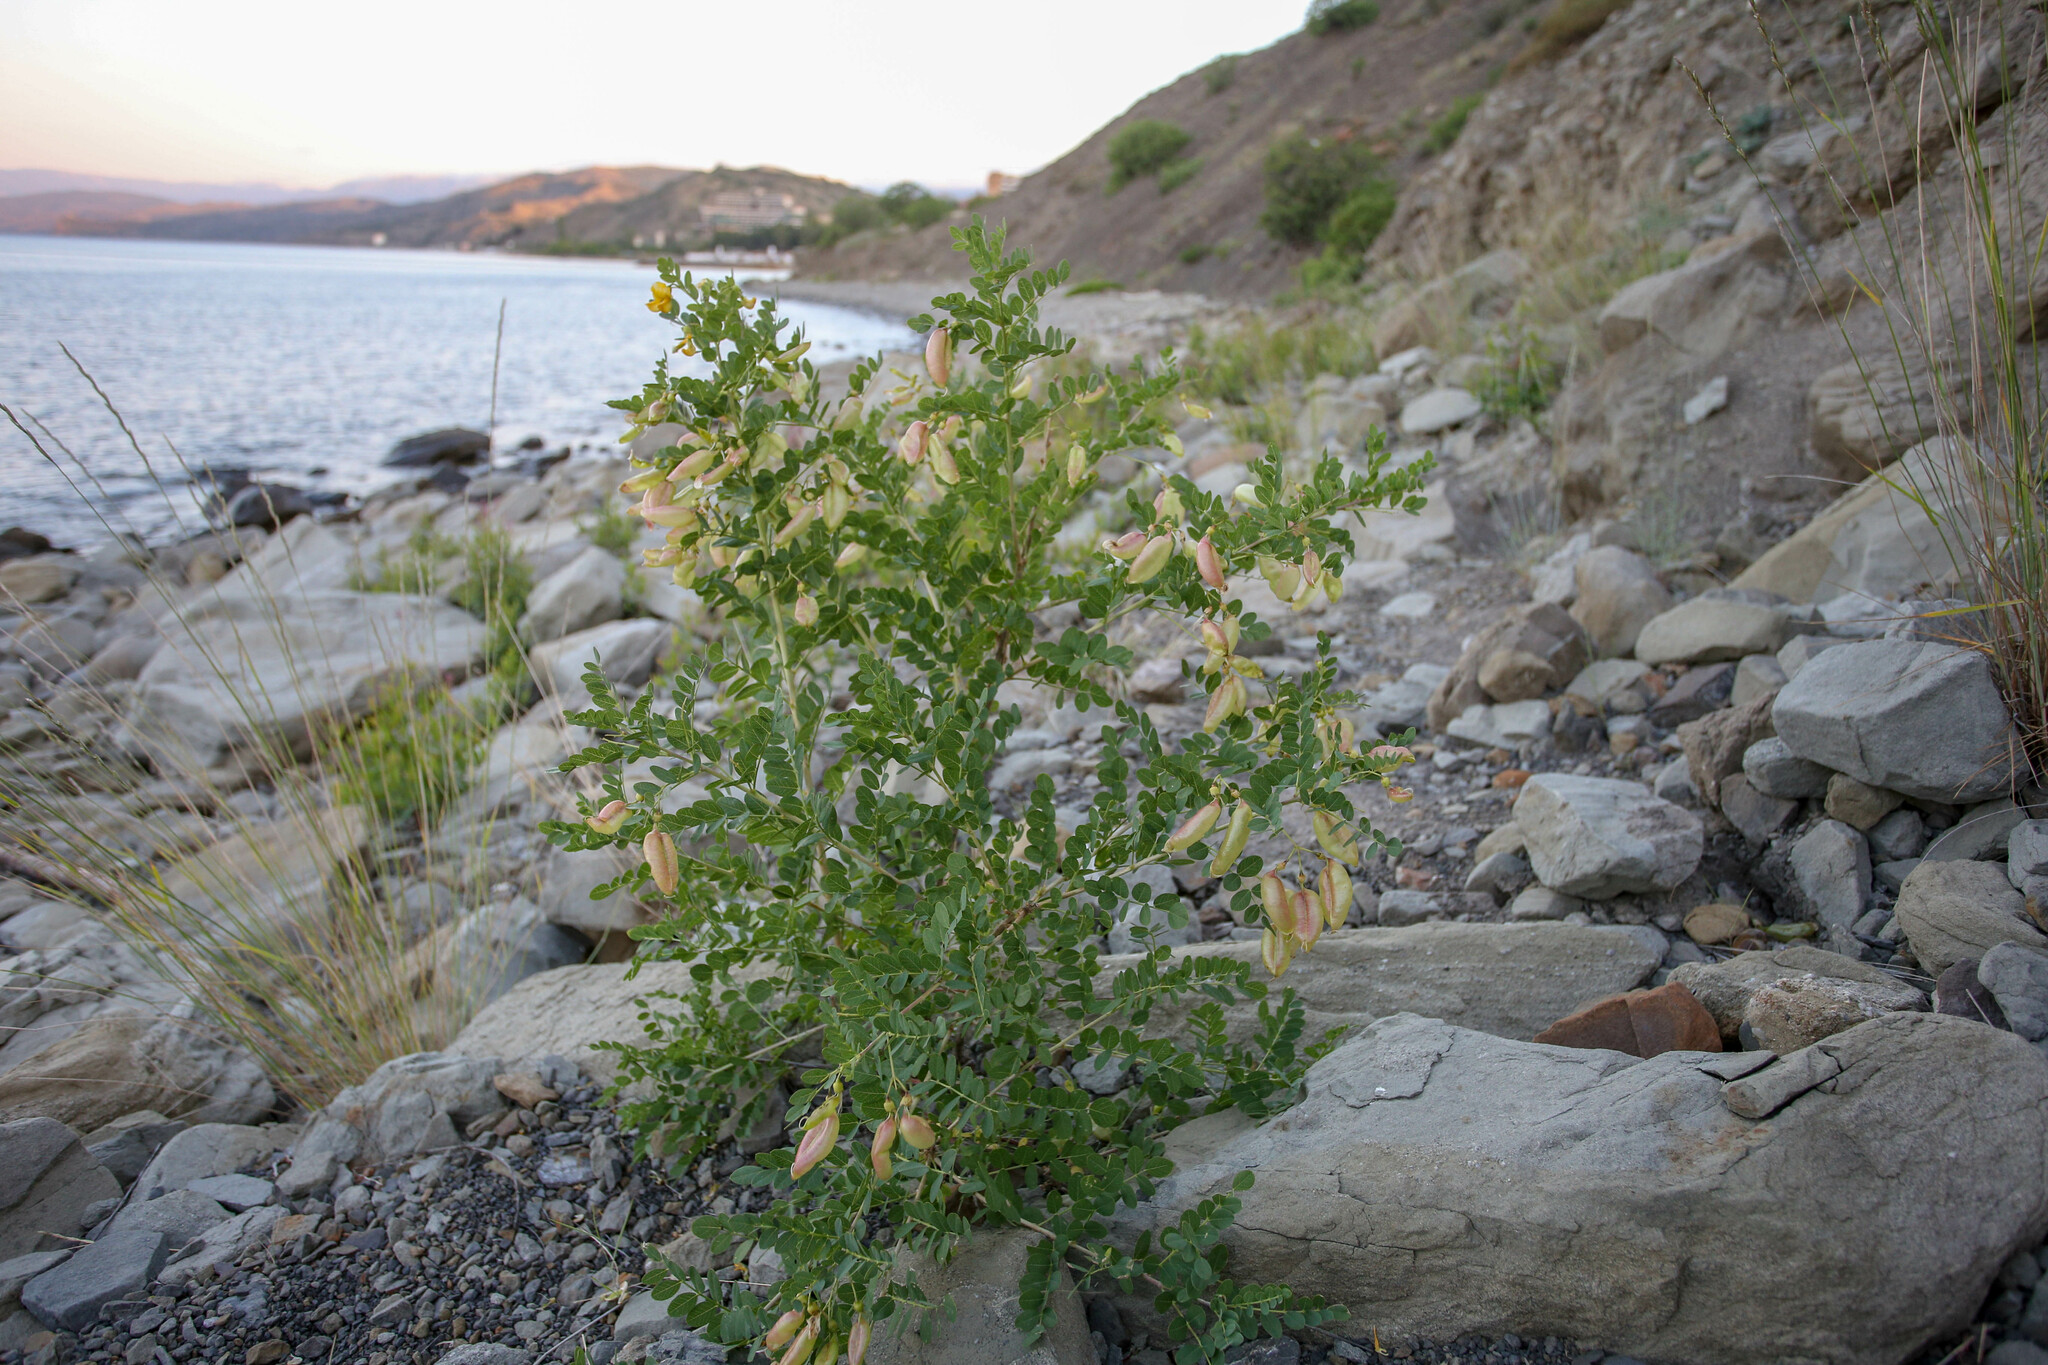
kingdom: Plantae
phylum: Tracheophyta
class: Magnoliopsida
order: Fabales
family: Fabaceae
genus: Colutea
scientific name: Colutea cilicica
